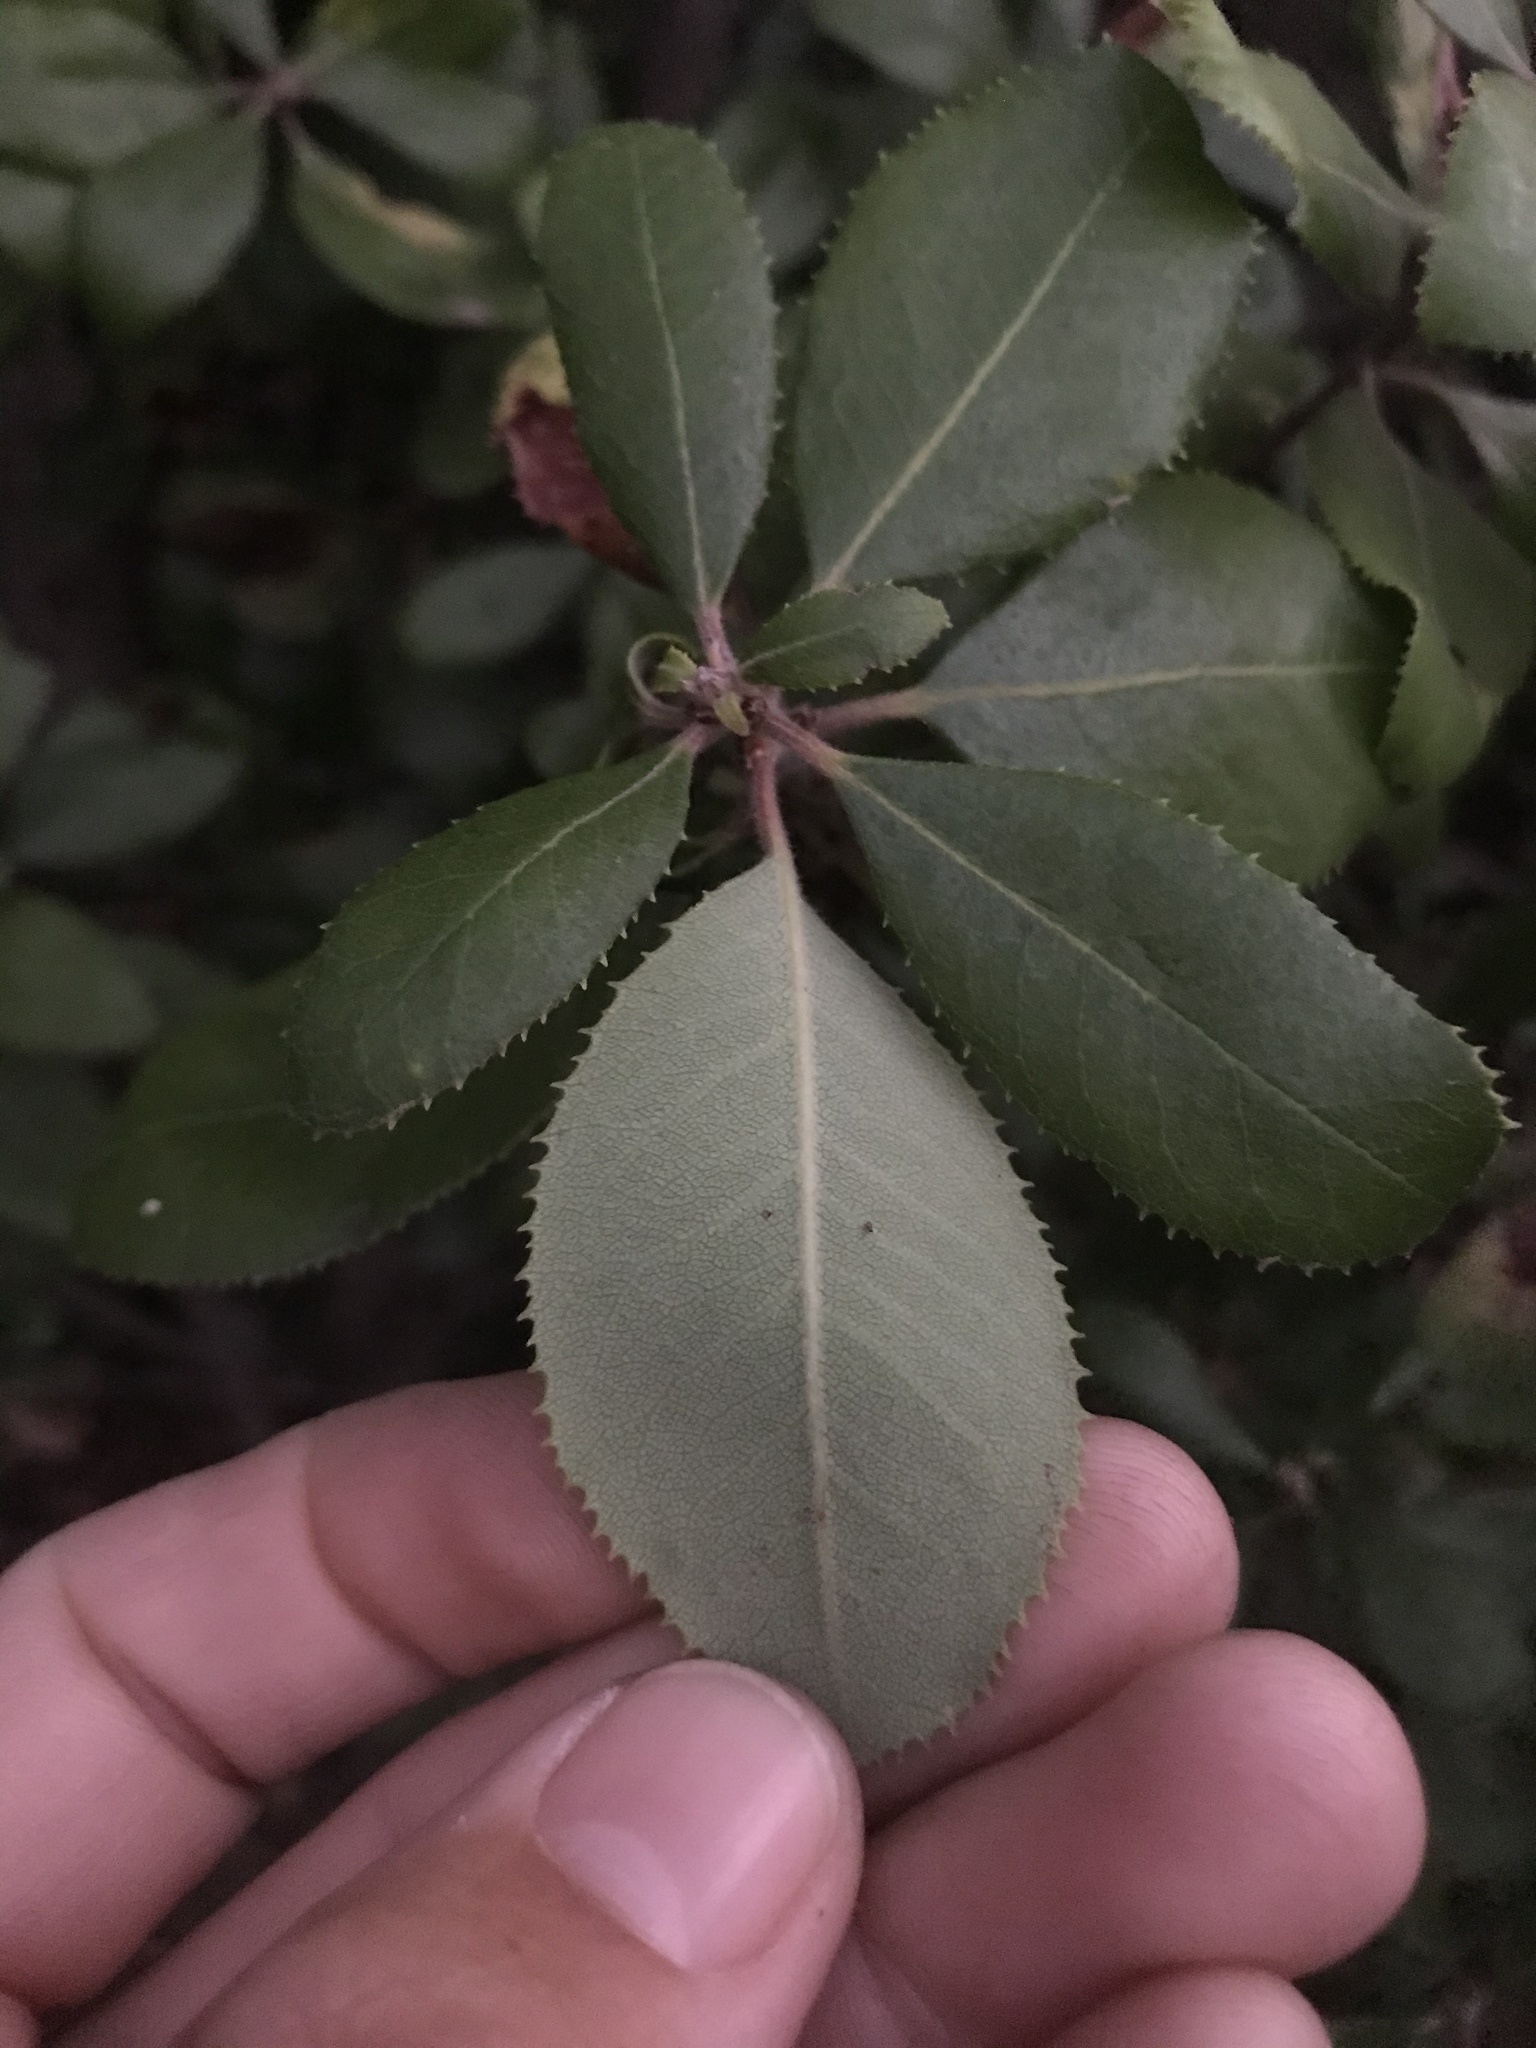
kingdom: Plantae
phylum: Tracheophyta
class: Magnoliopsida
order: Ericales
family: Ericaceae
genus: Comarostaphylis
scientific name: Comarostaphylis diversifolia
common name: Summer-holly
